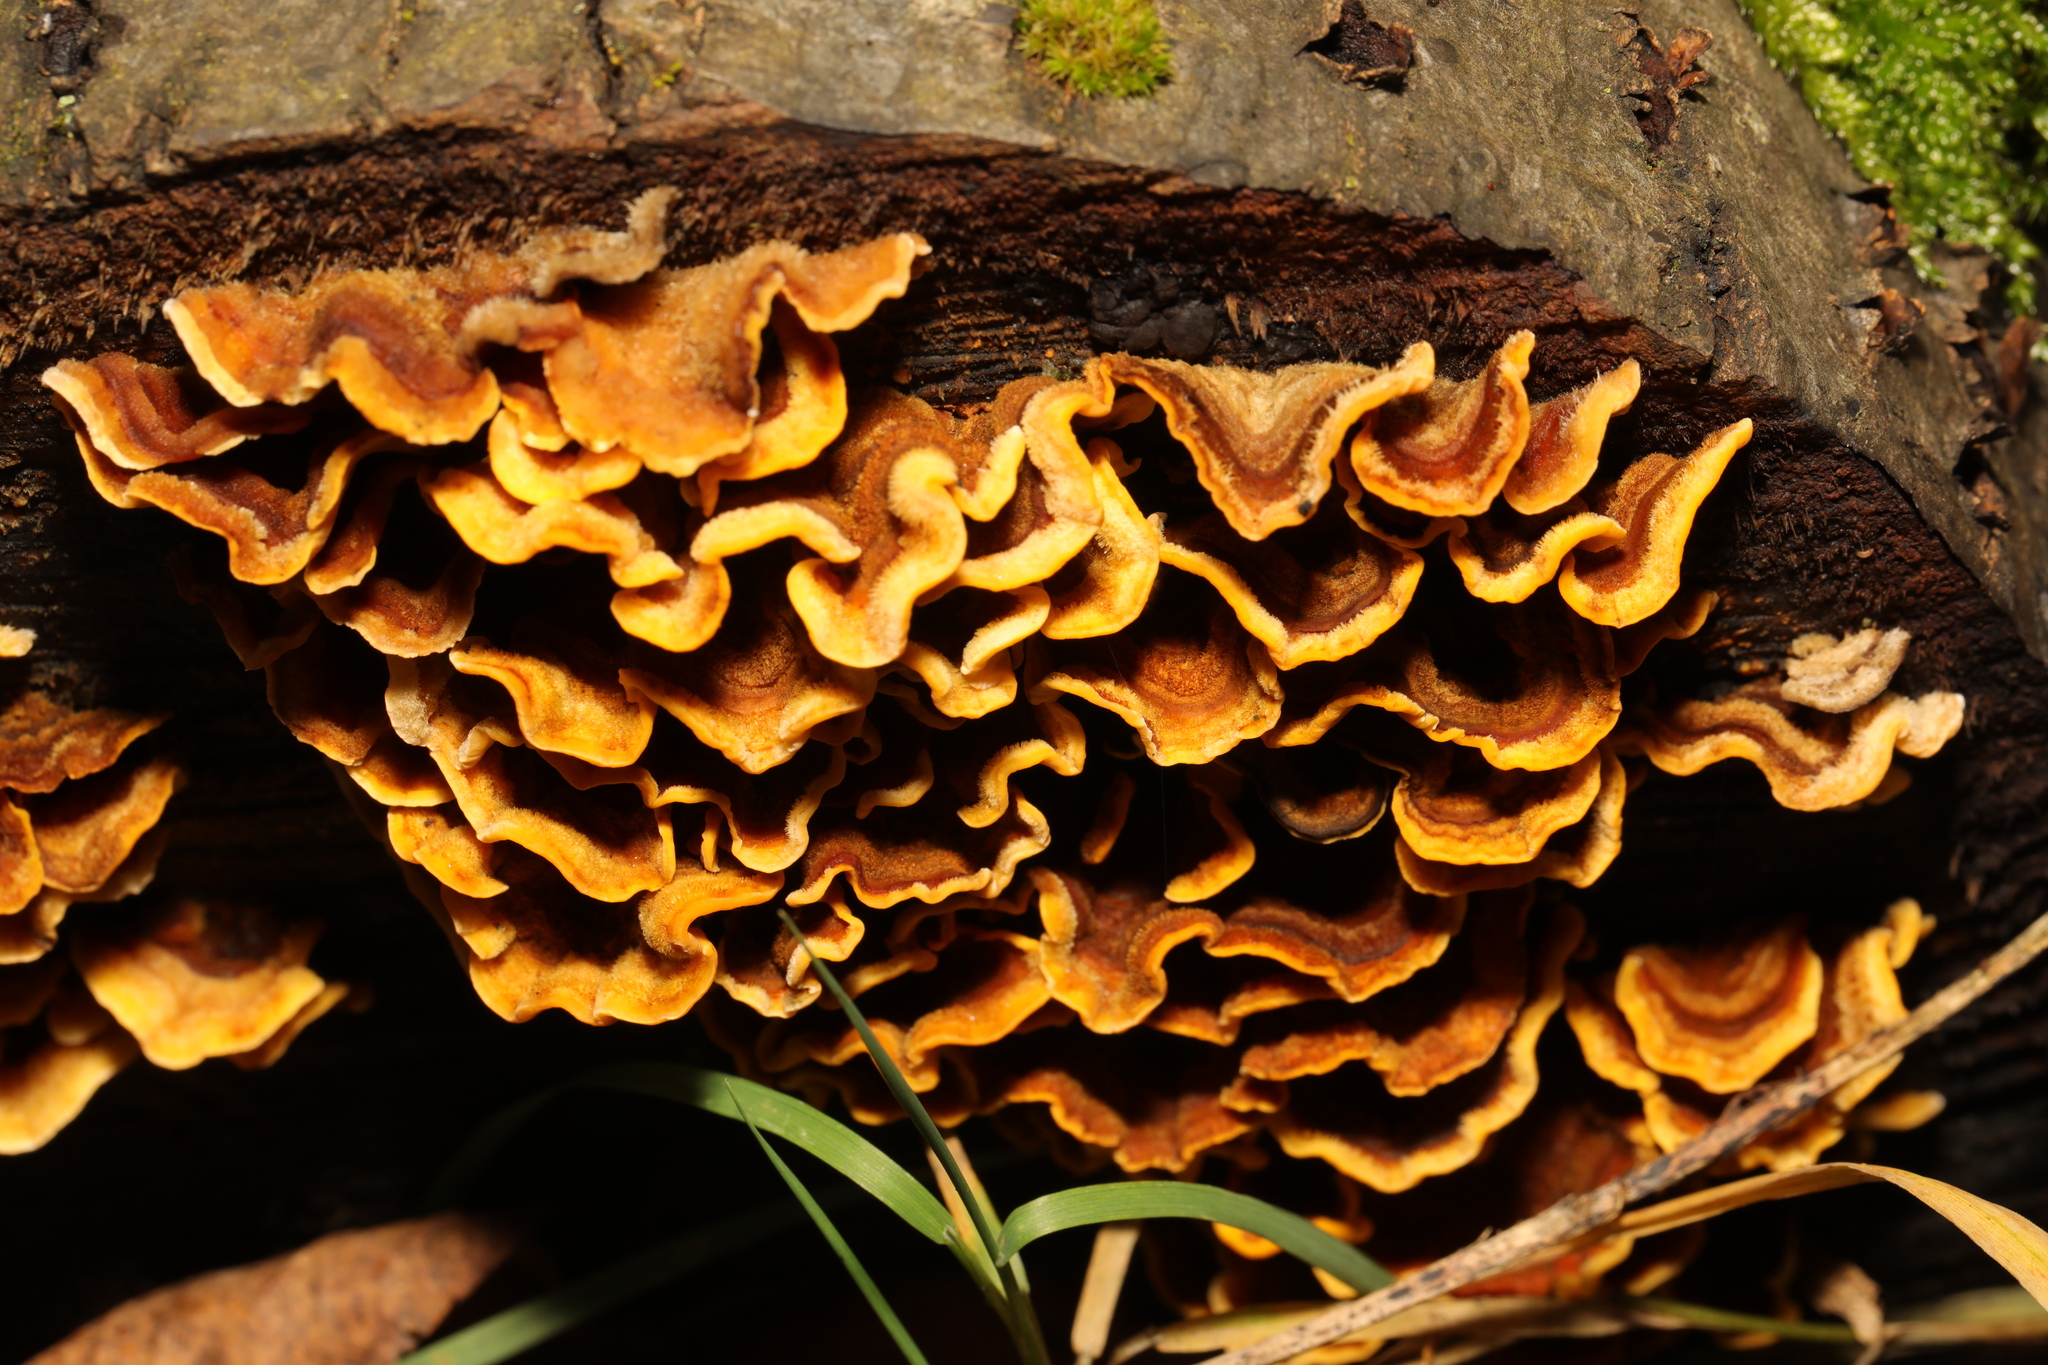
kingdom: Fungi
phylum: Basidiomycota
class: Agaricomycetes
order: Russulales
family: Stereaceae
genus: Stereum
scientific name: Stereum hirsutum
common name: Hairy curtain crust
